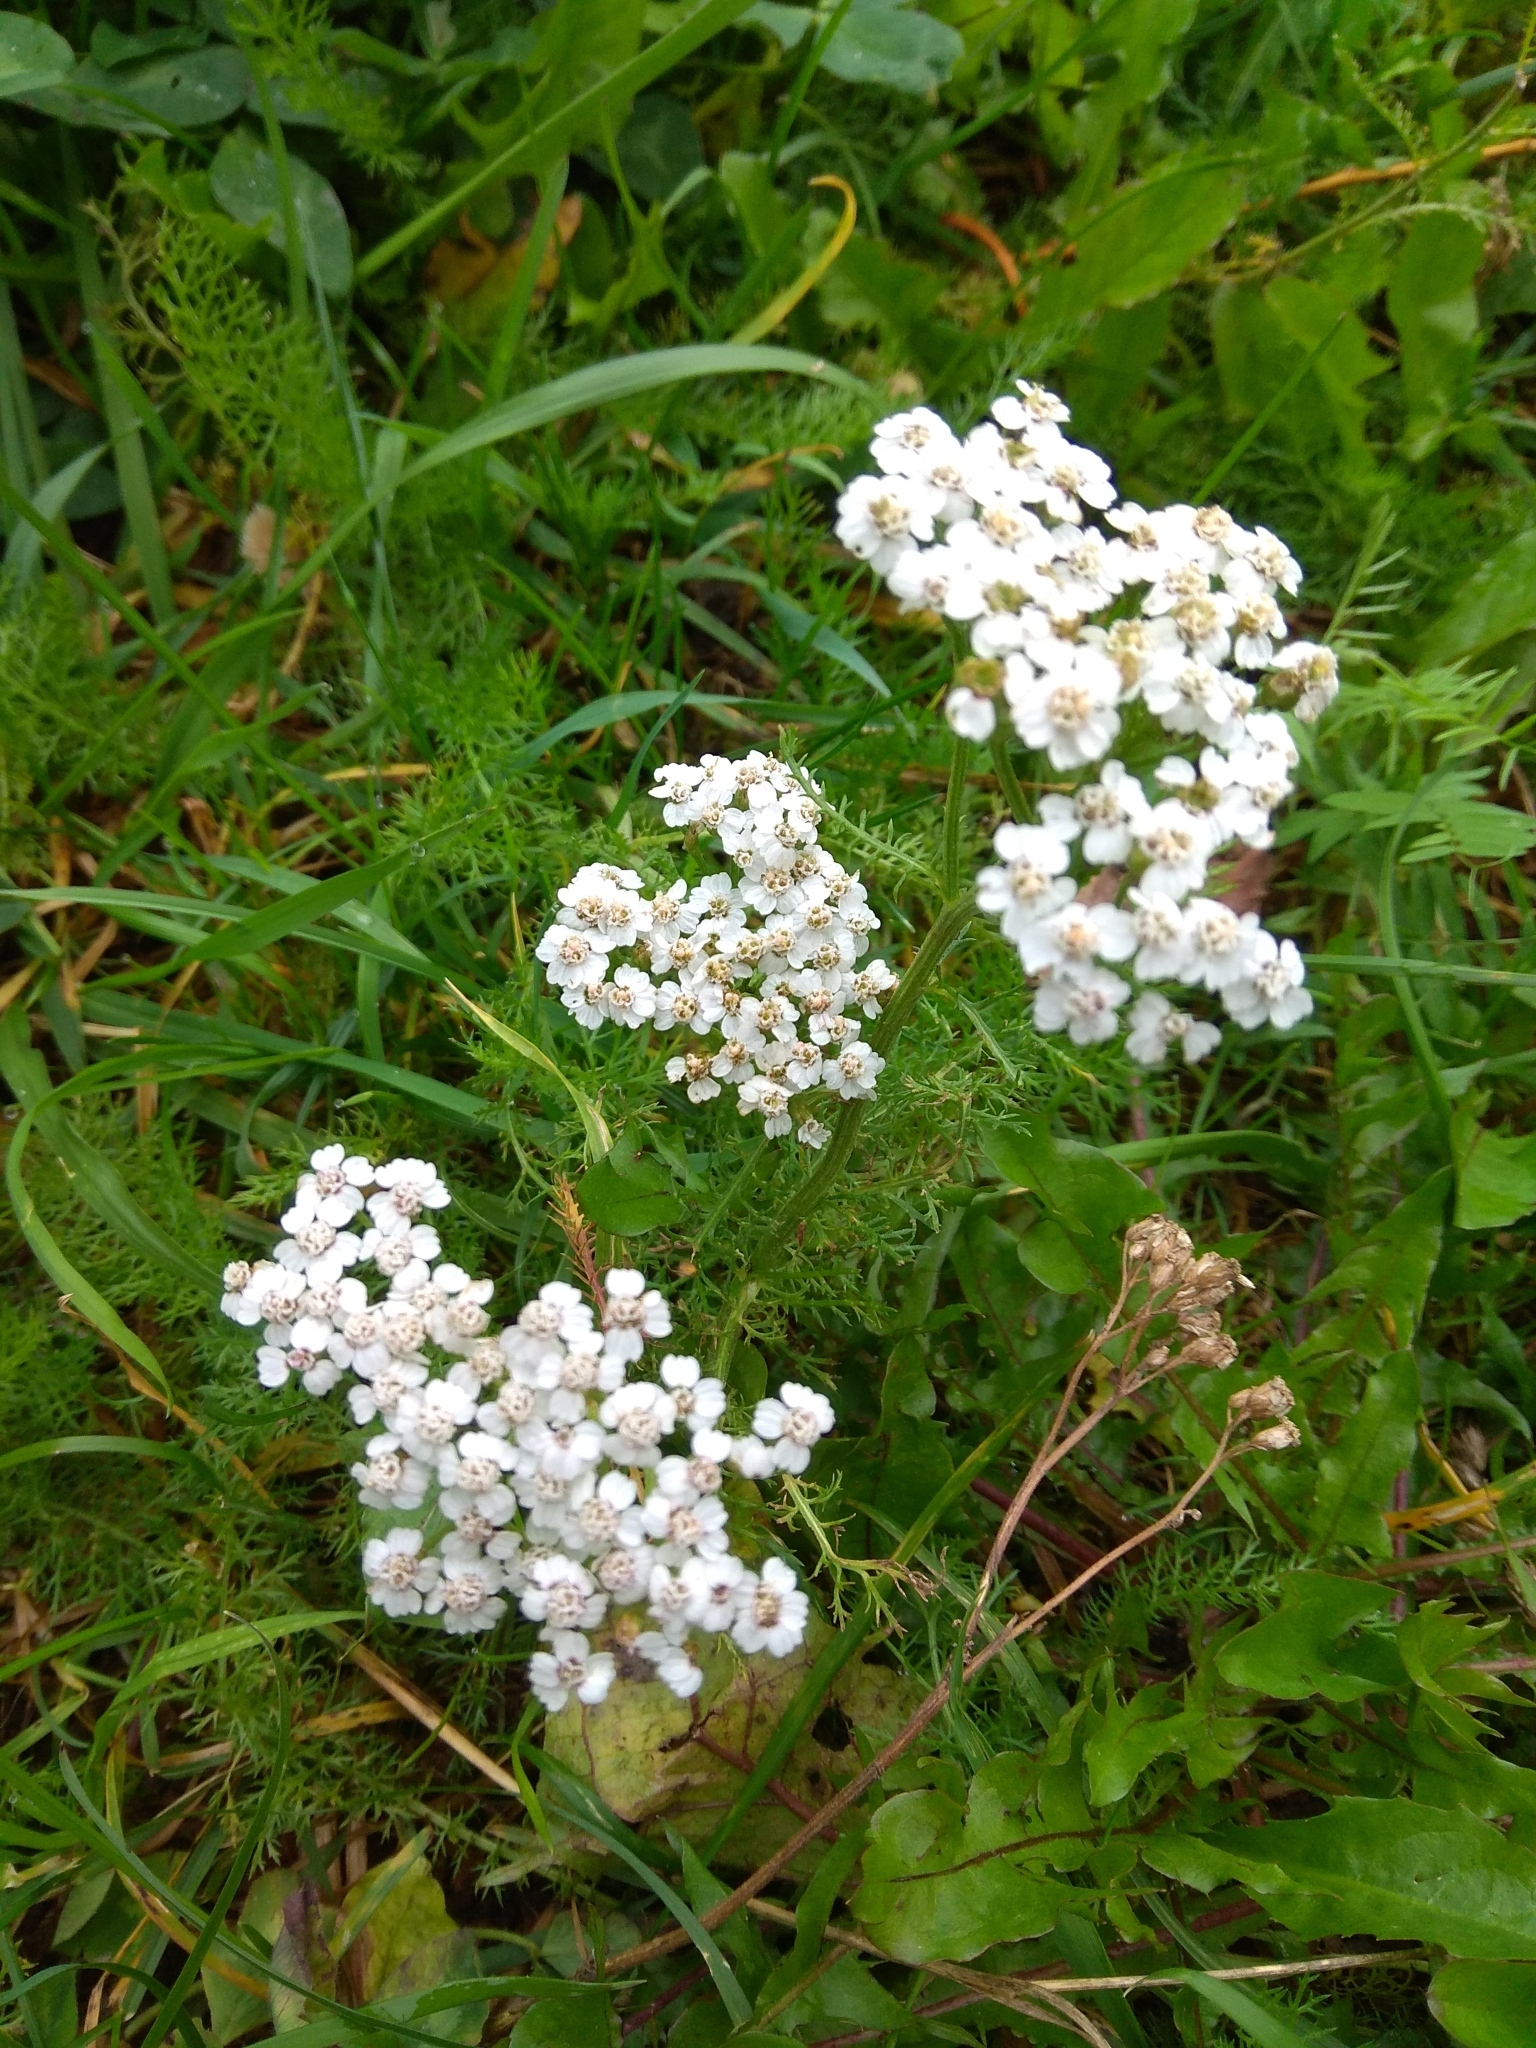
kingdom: Plantae
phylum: Tracheophyta
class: Magnoliopsida
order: Asterales
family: Asteraceae
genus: Achillea
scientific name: Achillea millefolium
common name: Yarrow
